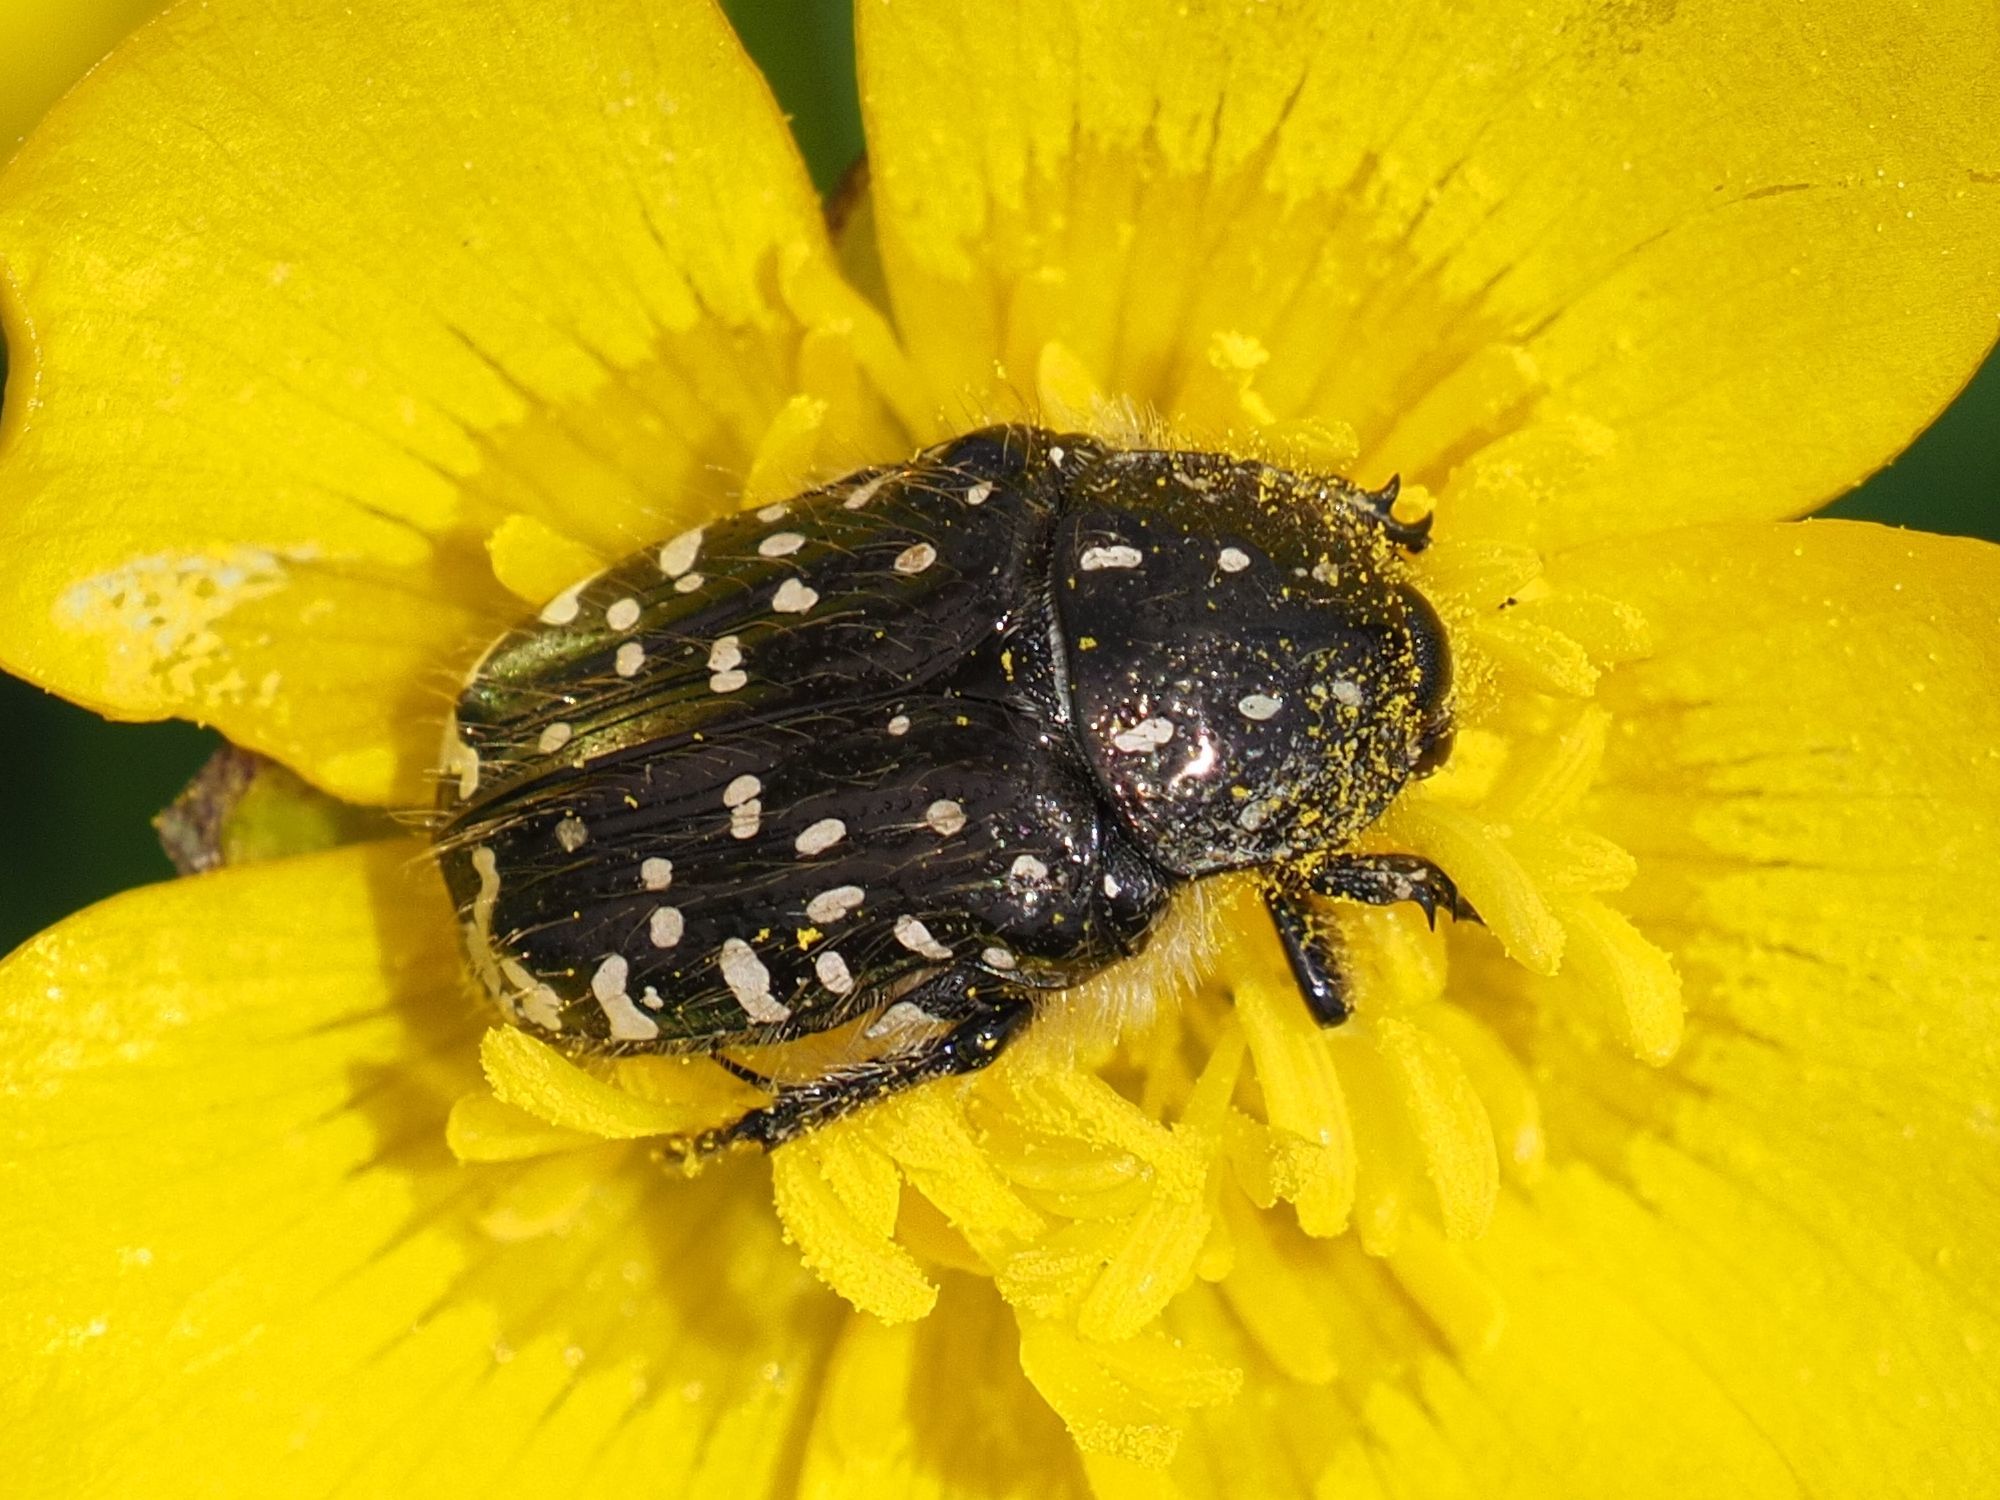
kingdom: Animalia
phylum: Arthropoda
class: Insecta
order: Coleoptera
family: Scarabaeidae
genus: Oxythyrea
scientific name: Oxythyrea funesta
